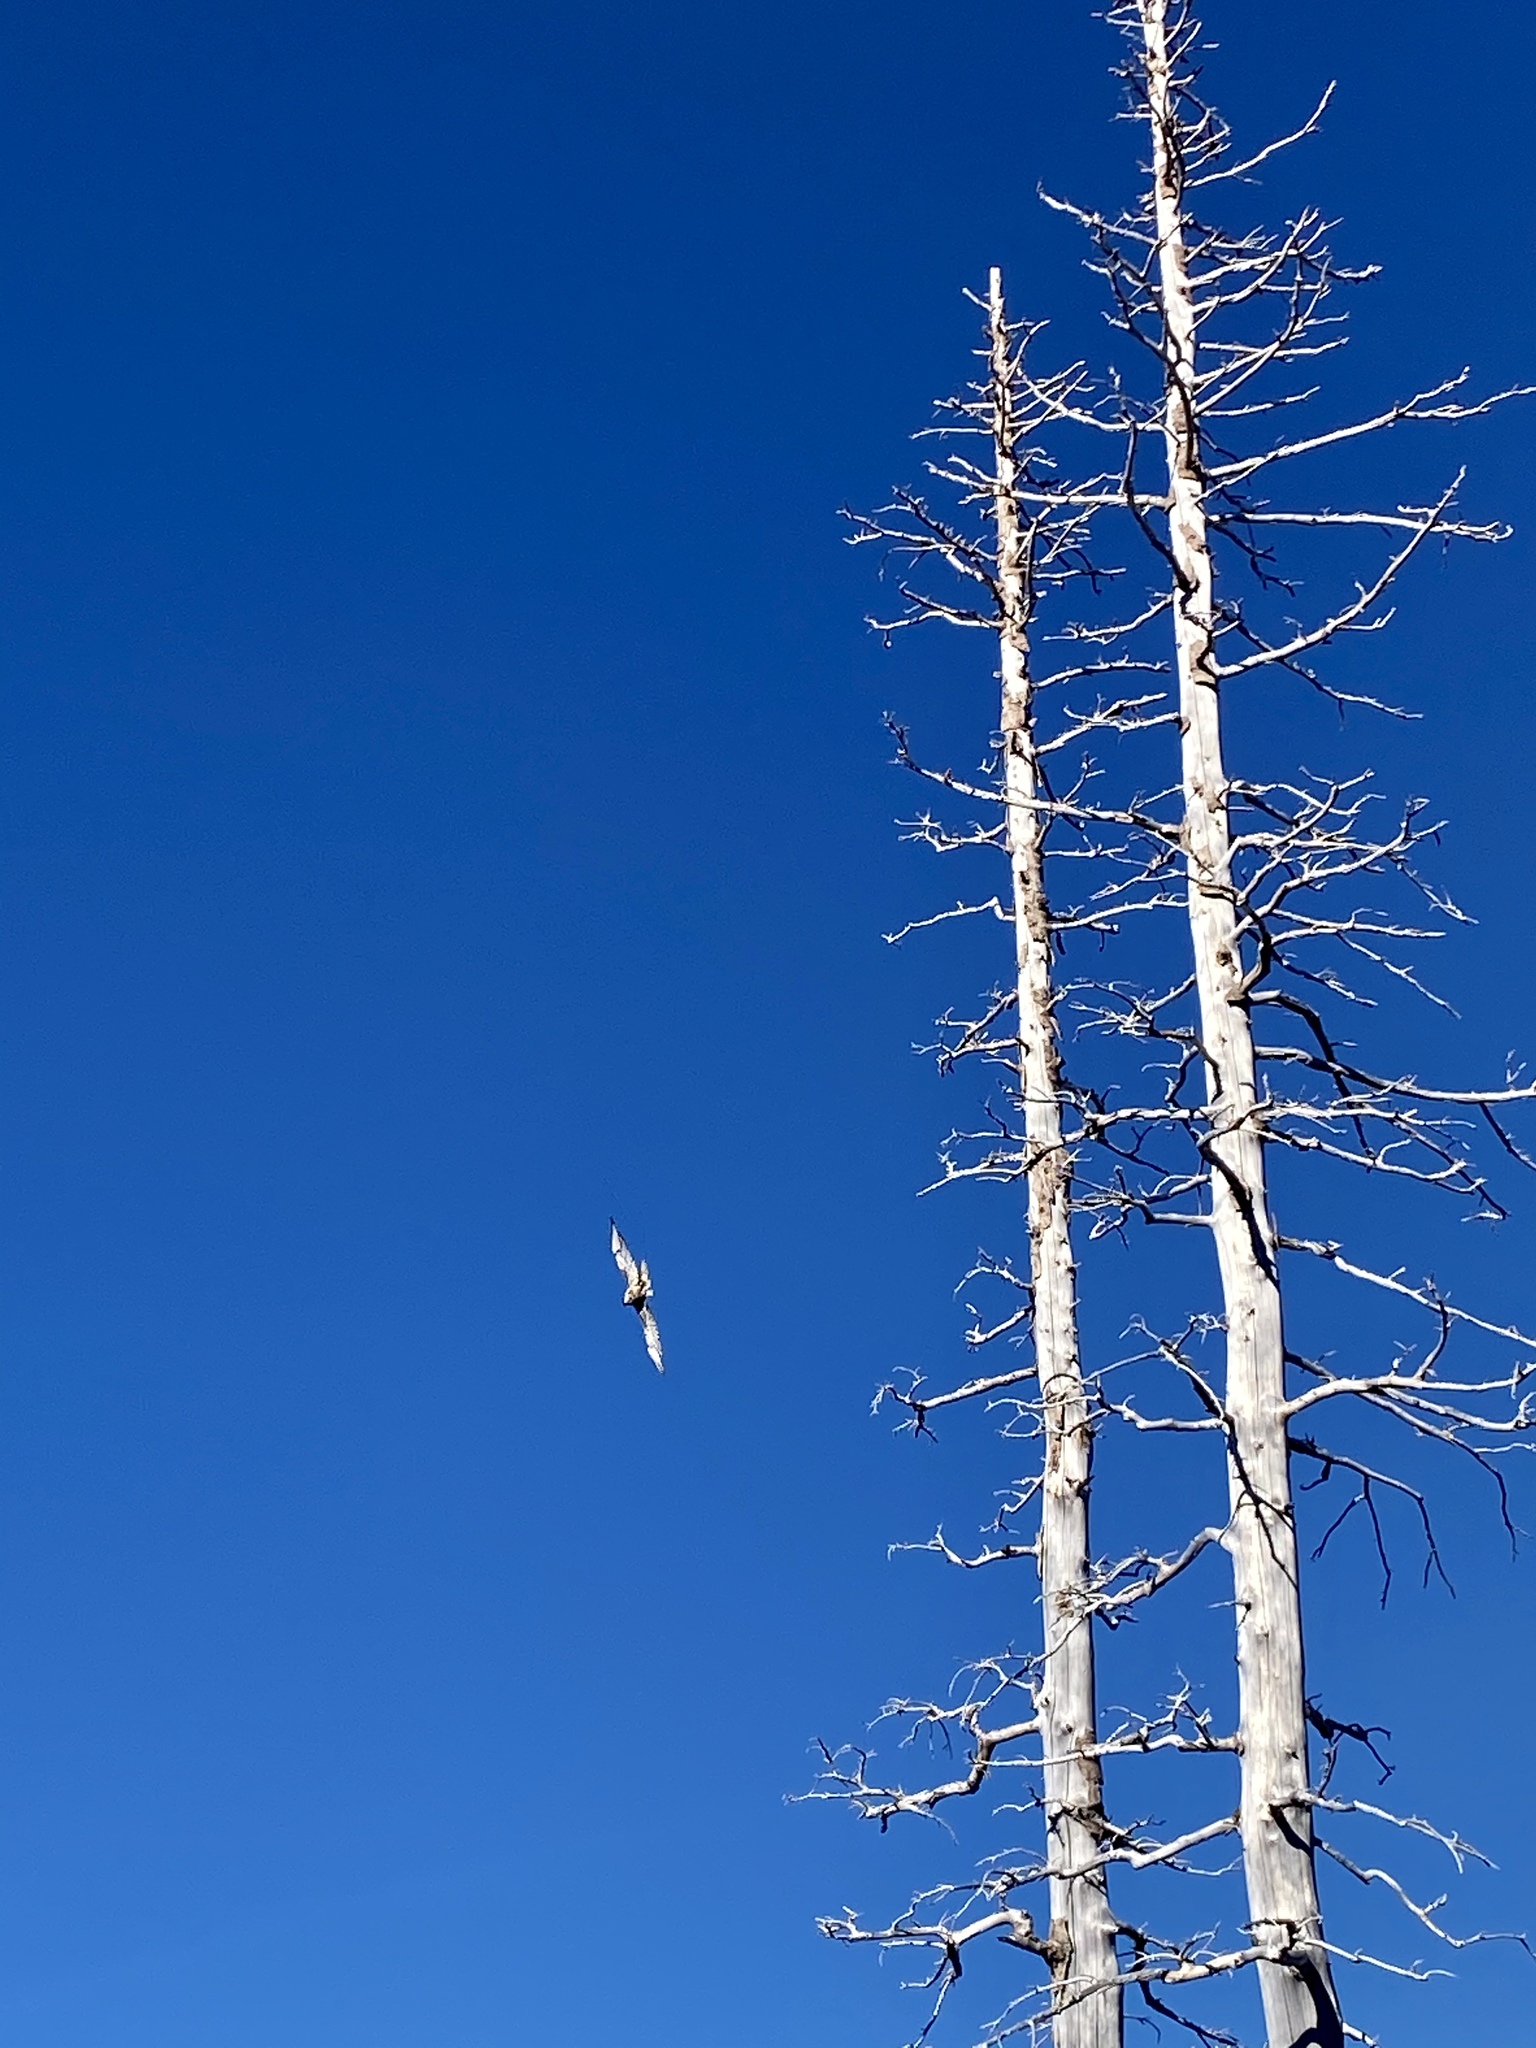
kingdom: Animalia
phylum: Chordata
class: Aves
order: Accipitriformes
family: Accipitridae
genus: Buteo
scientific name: Buteo jamaicensis
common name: Red-tailed hawk
